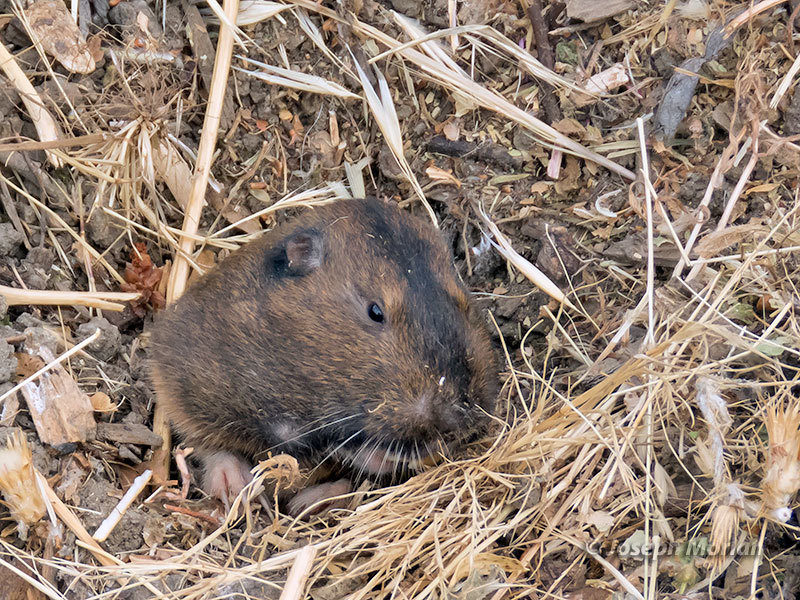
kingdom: Animalia
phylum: Chordata
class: Mammalia
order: Rodentia
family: Geomyidae
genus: Thomomys
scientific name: Thomomys bottae
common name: Botta's pocket gopher
